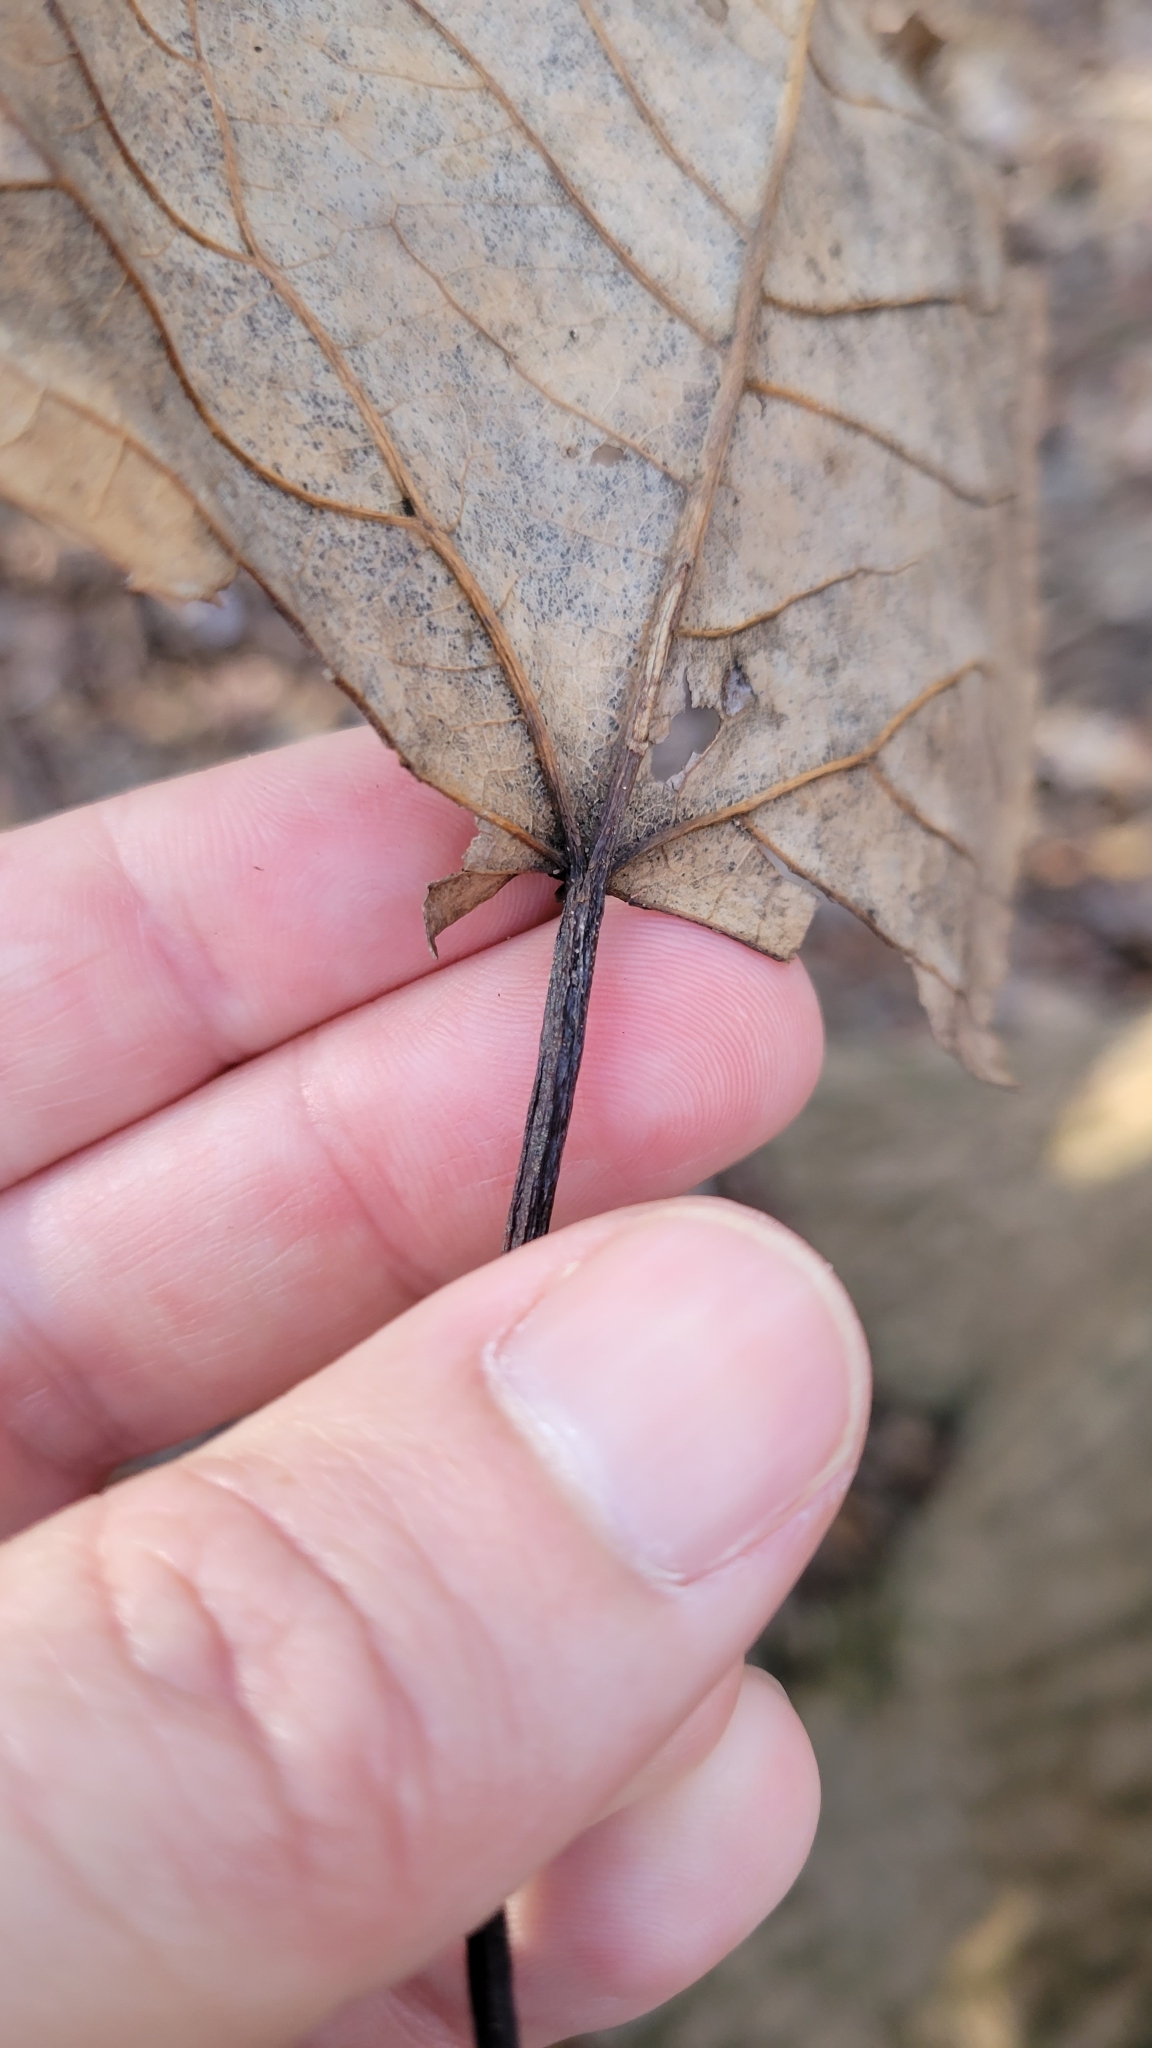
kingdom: Plantae
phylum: Tracheophyta
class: Magnoliopsida
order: Malpighiales
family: Salicaceae
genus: Populus
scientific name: Populus heterophylla
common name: Downy poplar
